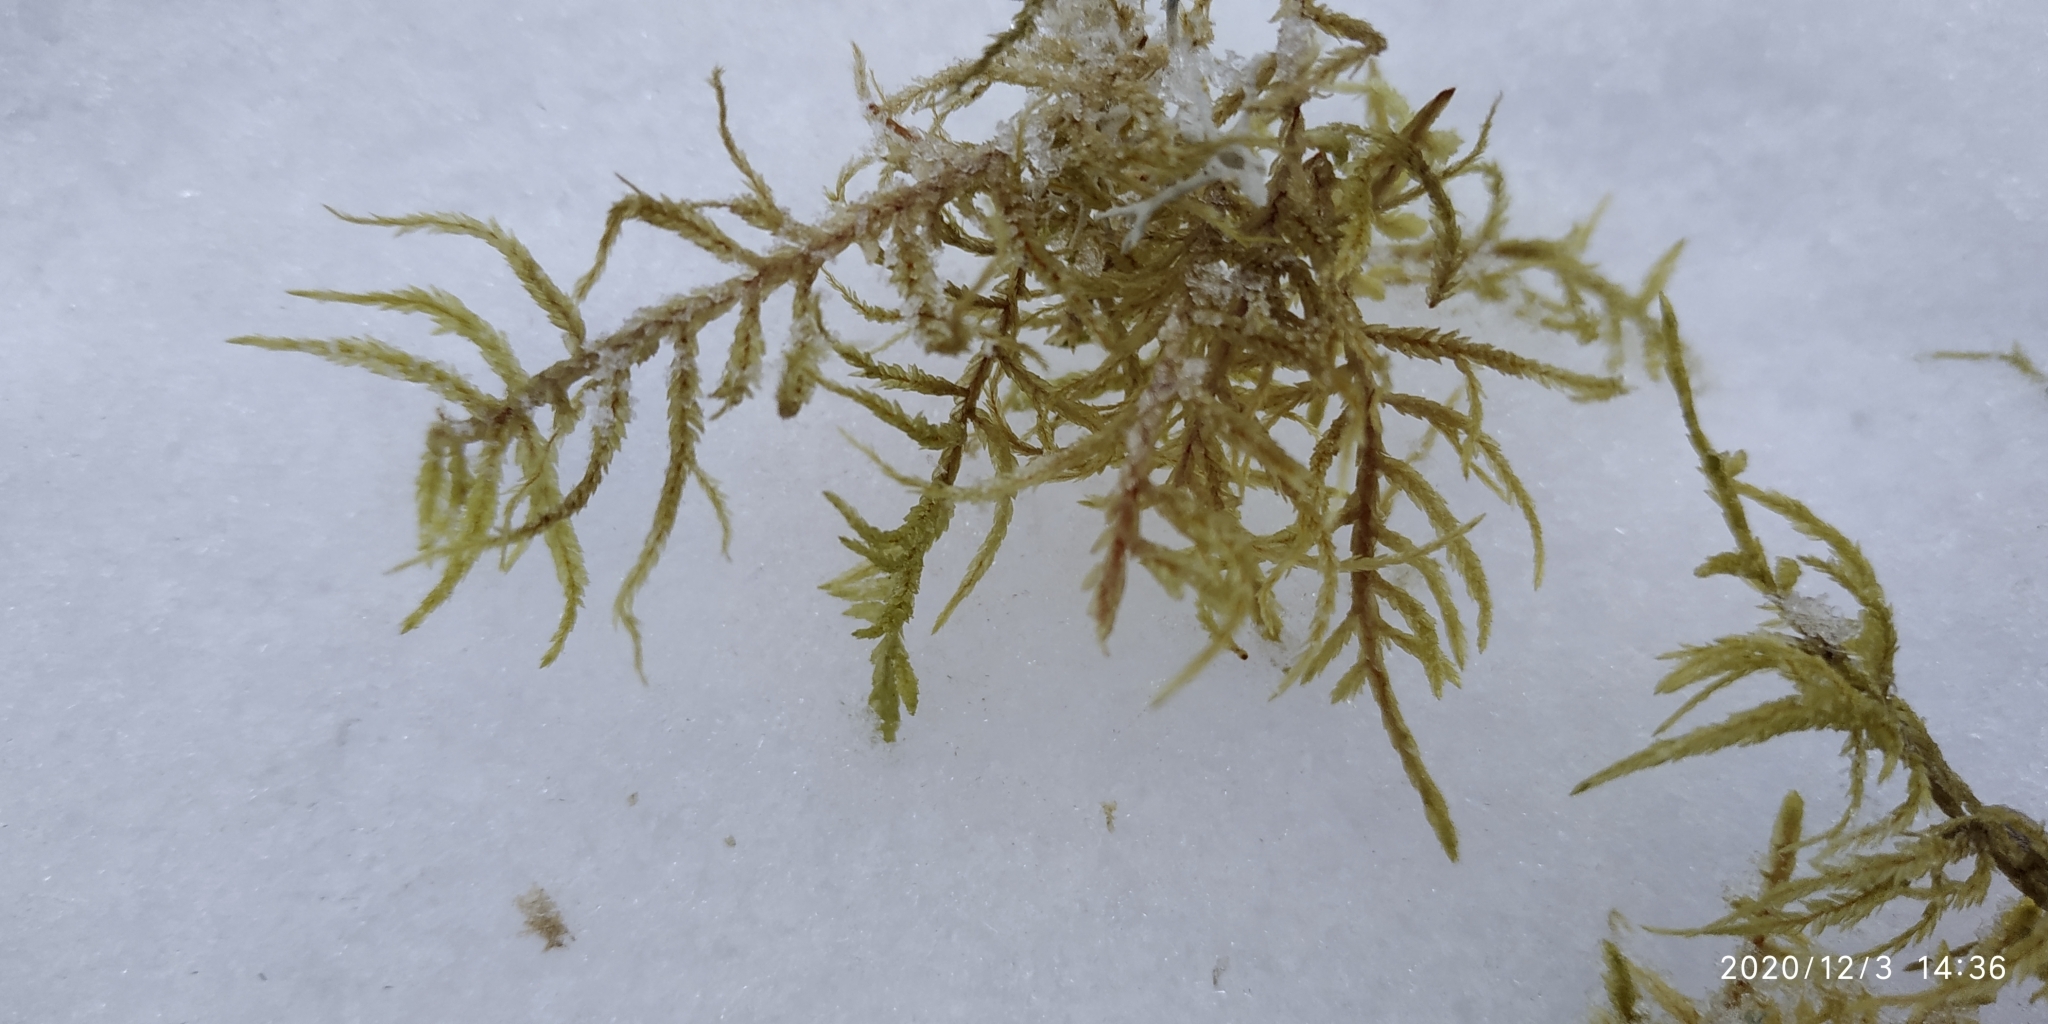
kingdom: Plantae
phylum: Bryophyta
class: Bryopsida
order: Hypnales
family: Hylocomiaceae
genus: Pleurozium
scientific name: Pleurozium schreberi
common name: Red-stemmed feather moss
